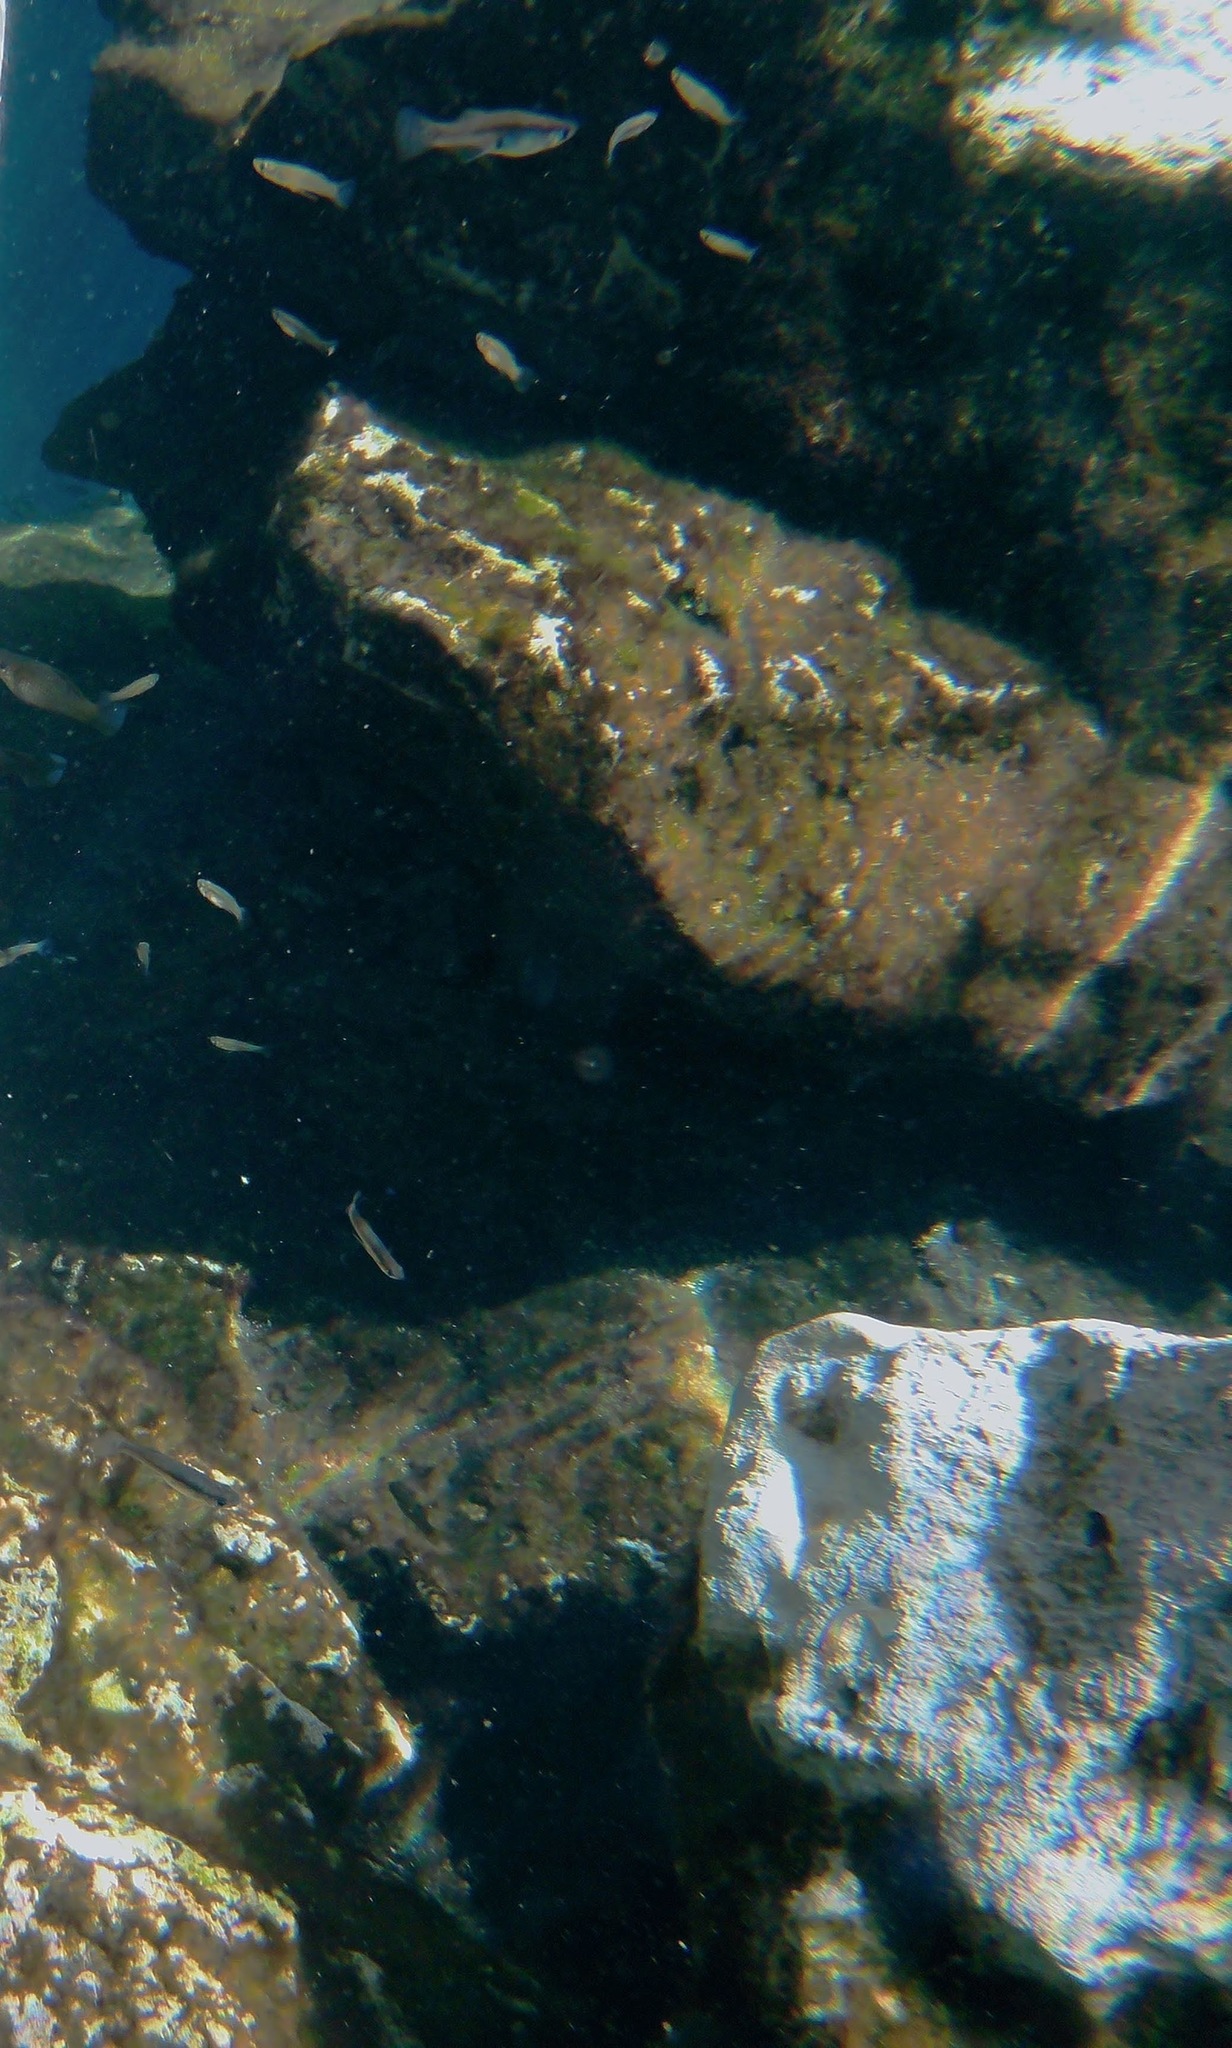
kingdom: Animalia
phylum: Chordata
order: Cyprinodontiformes
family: Poeciliidae
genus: Poecilia
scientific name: Poecilia velifera
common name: Sail-fin molly
